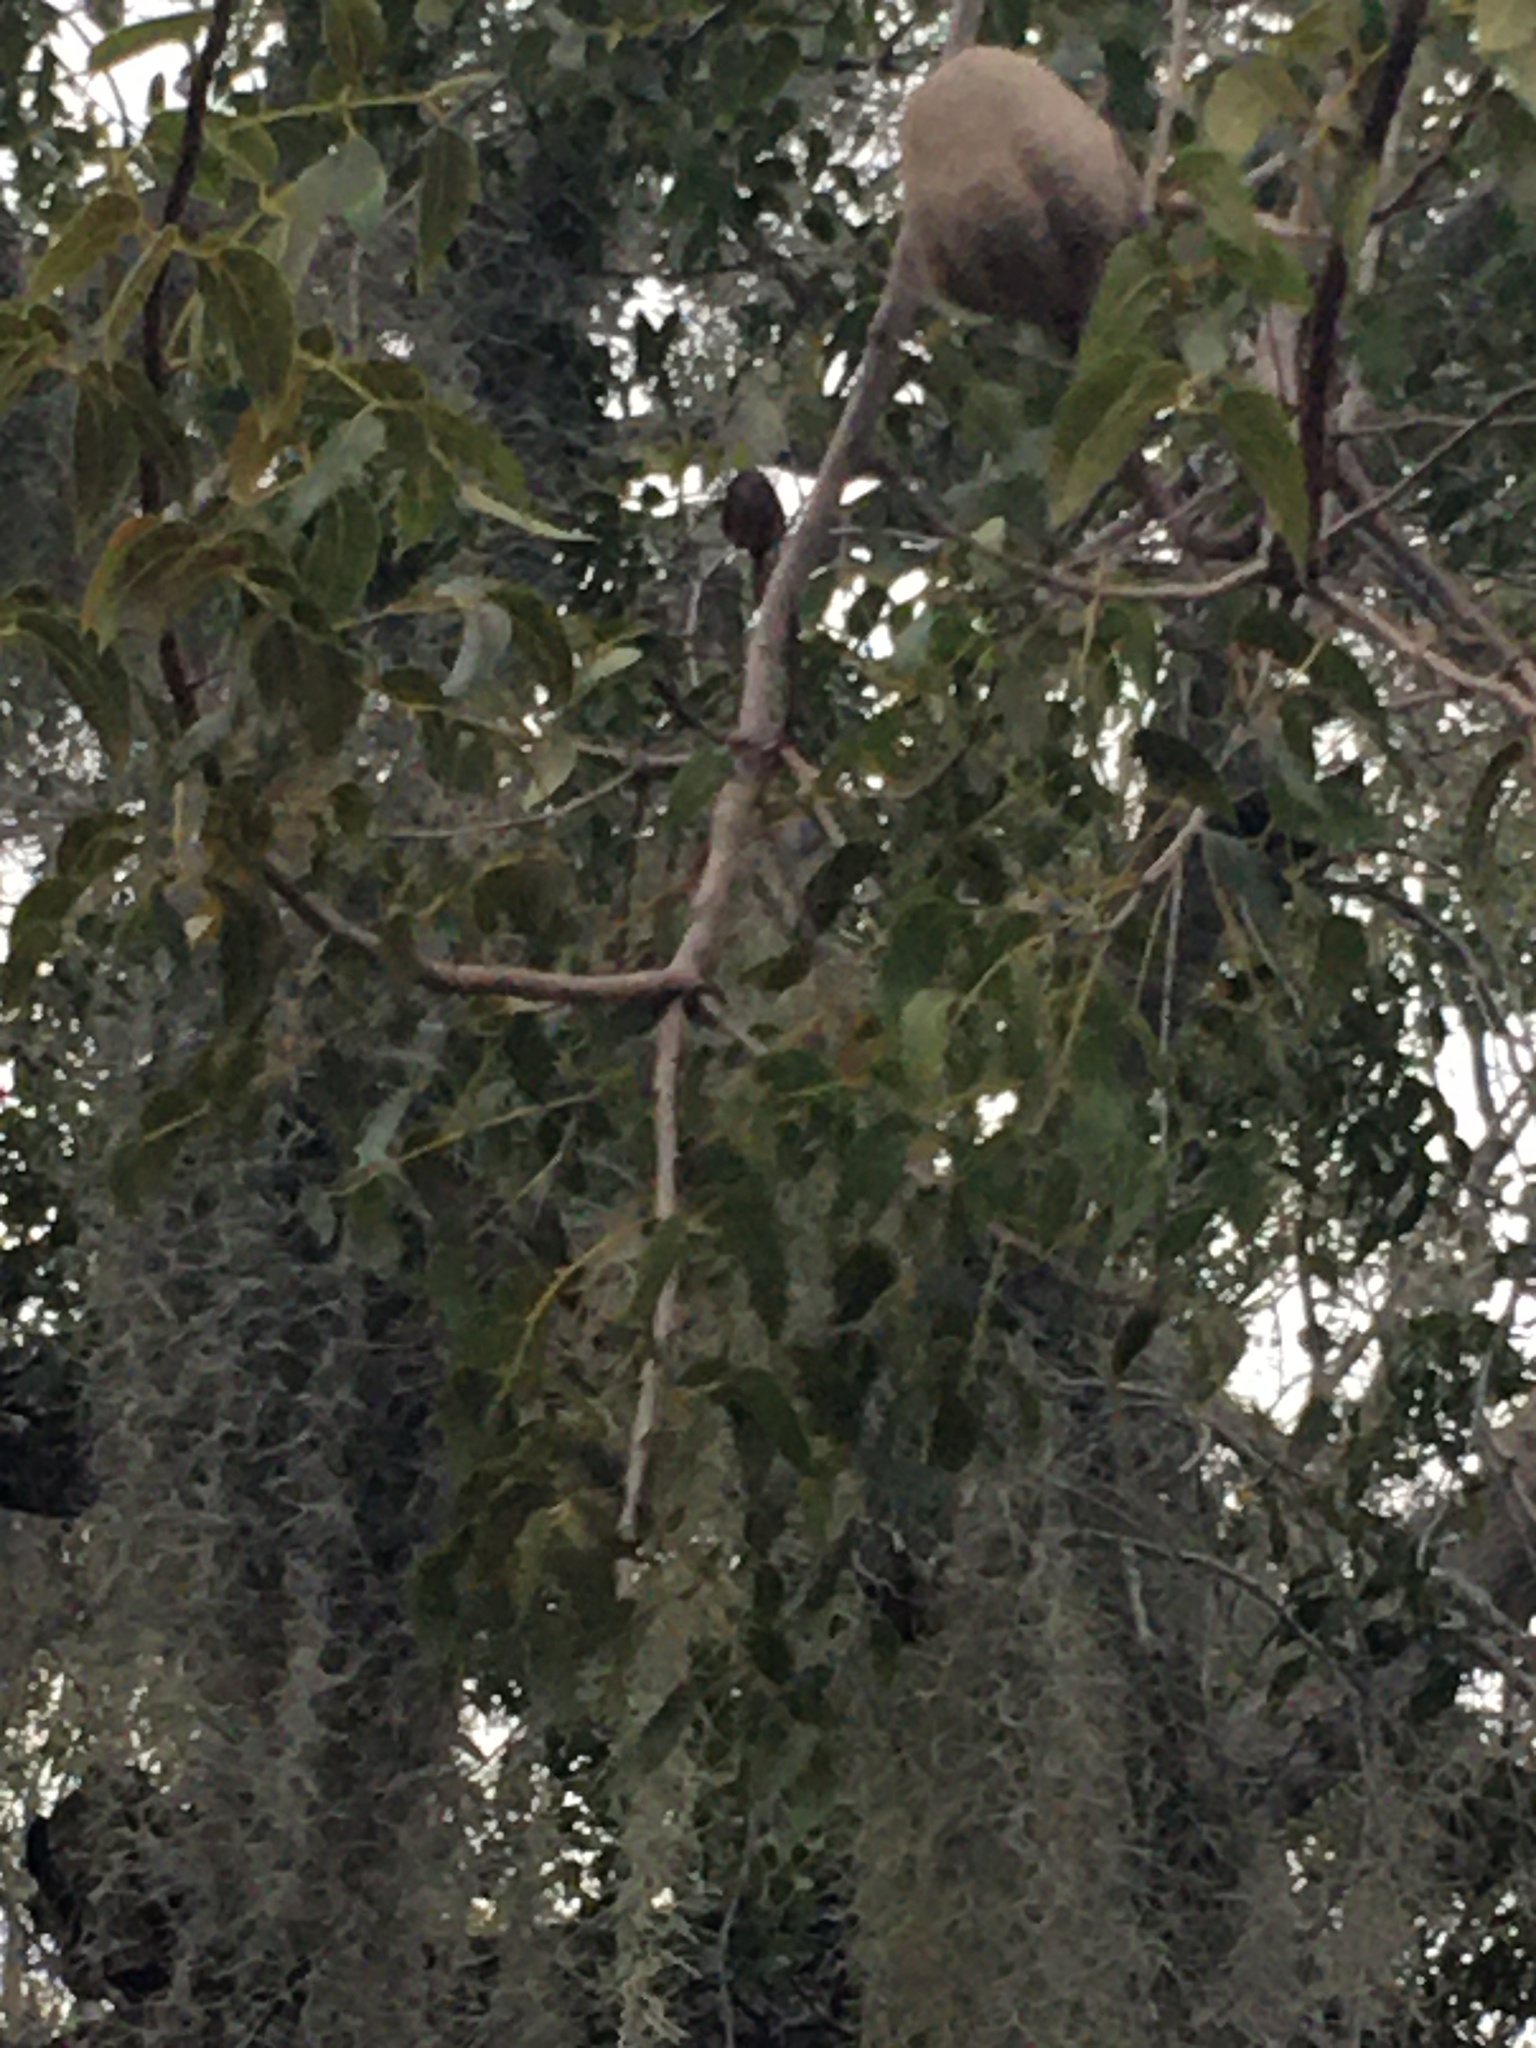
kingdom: Plantae
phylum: Tracheophyta
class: Magnoliopsida
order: Sapindales
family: Meliaceae
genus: Swietenia
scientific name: Swietenia mahagoni
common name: West indian mahogany
